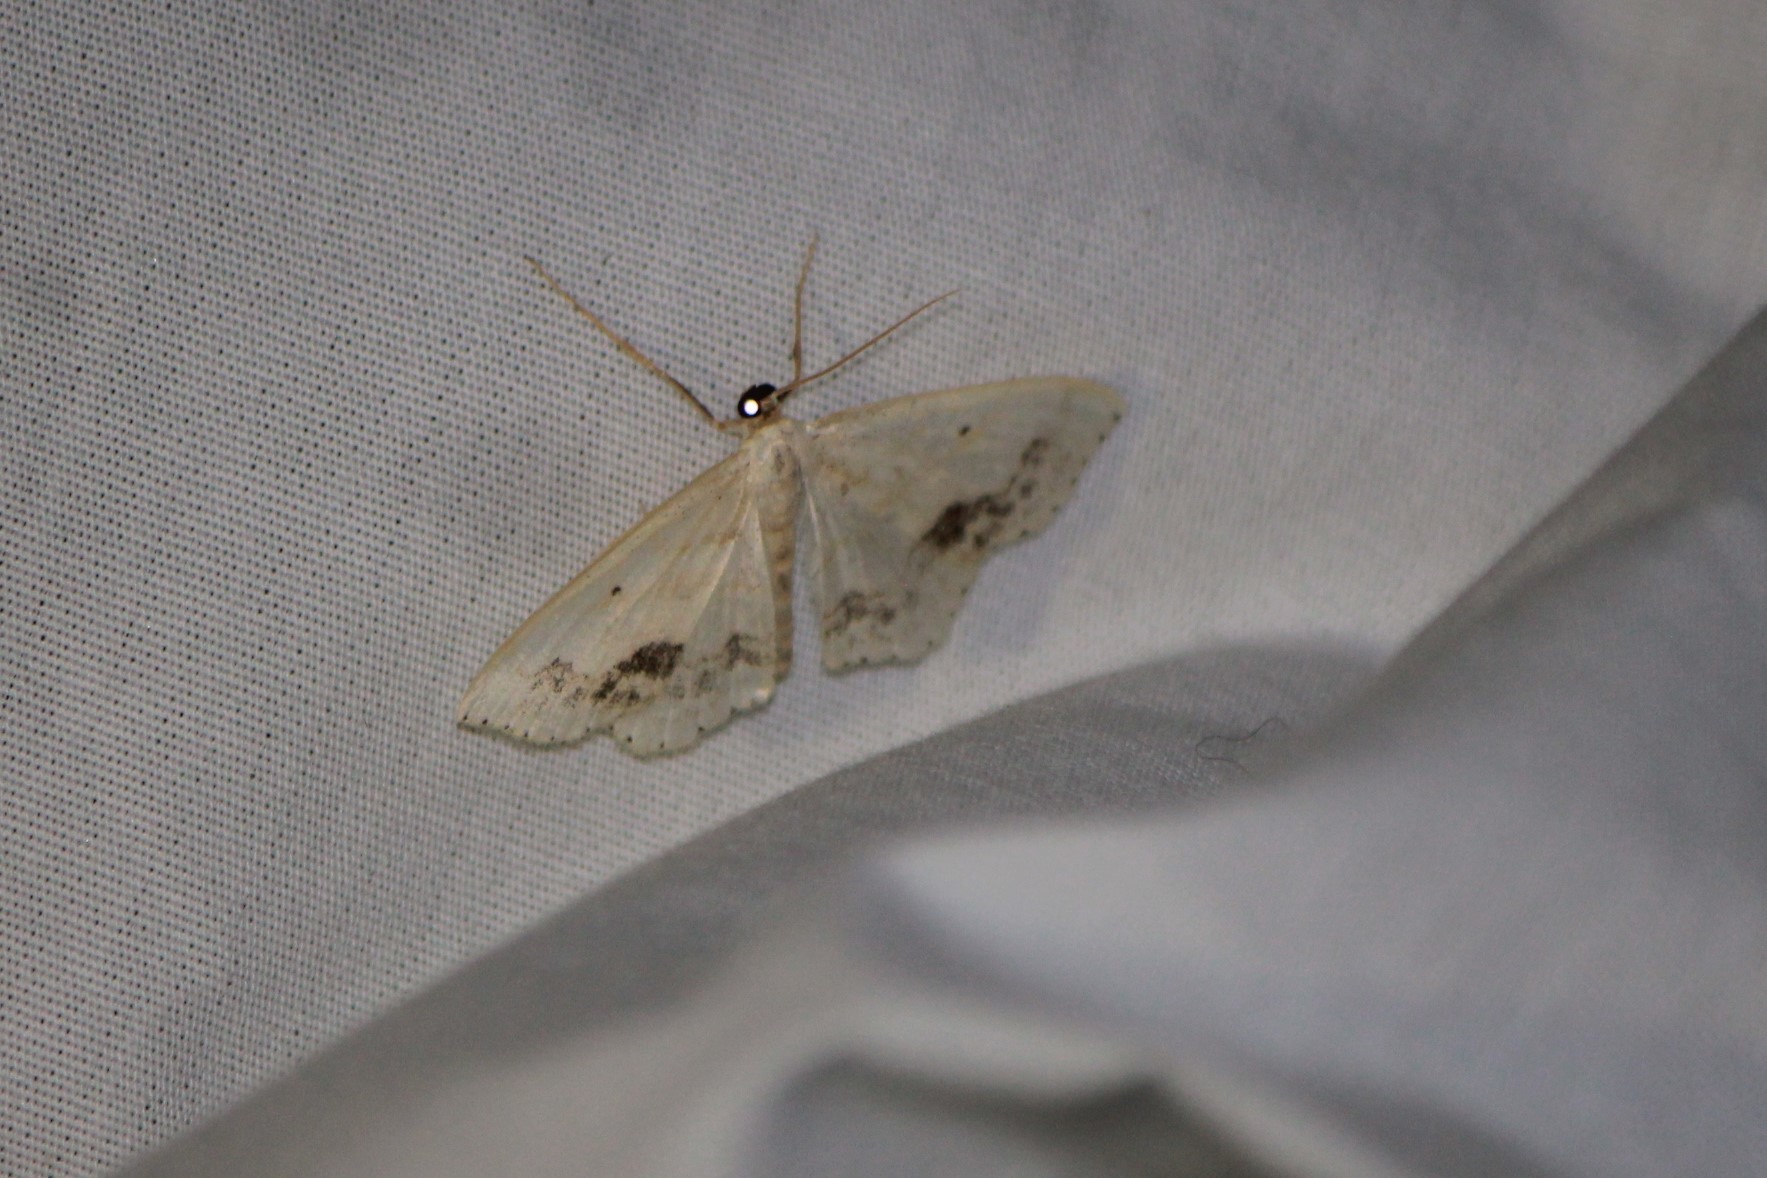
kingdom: Animalia
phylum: Arthropoda
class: Insecta
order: Lepidoptera
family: Geometridae
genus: Scopula
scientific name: Scopula limboundata
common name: Large lace border
